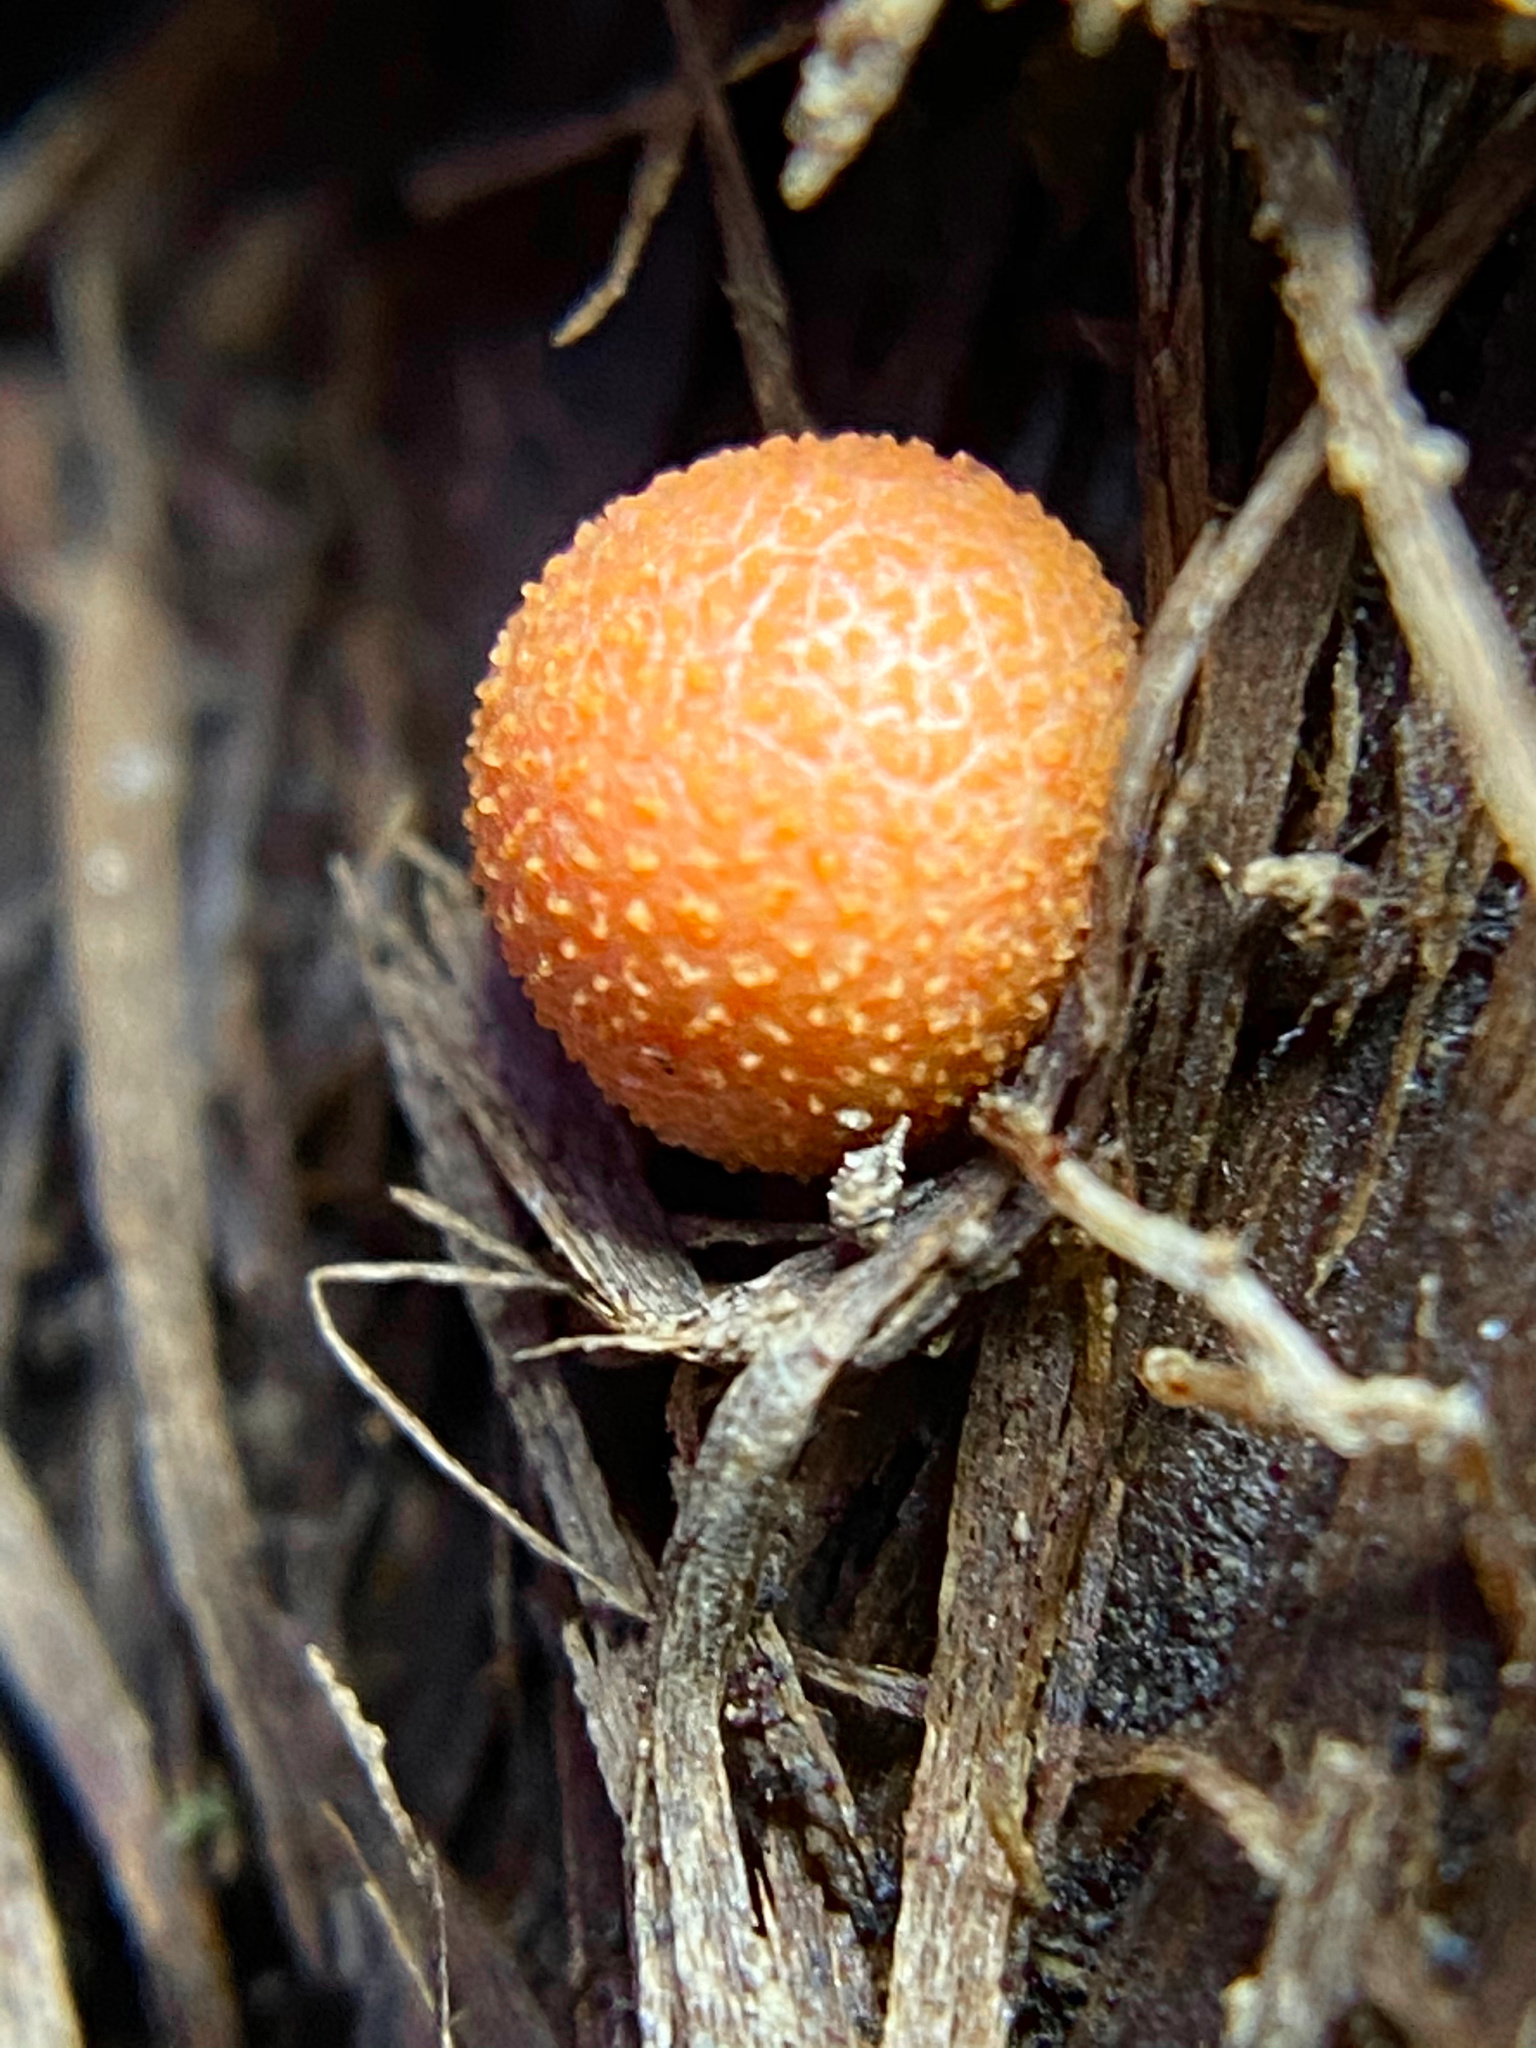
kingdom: Protozoa
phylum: Mycetozoa
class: Myxomycetes
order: Cribrariales
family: Tubiferaceae
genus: Lycogala
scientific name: Lycogala epidendrum
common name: Wolf's milk
